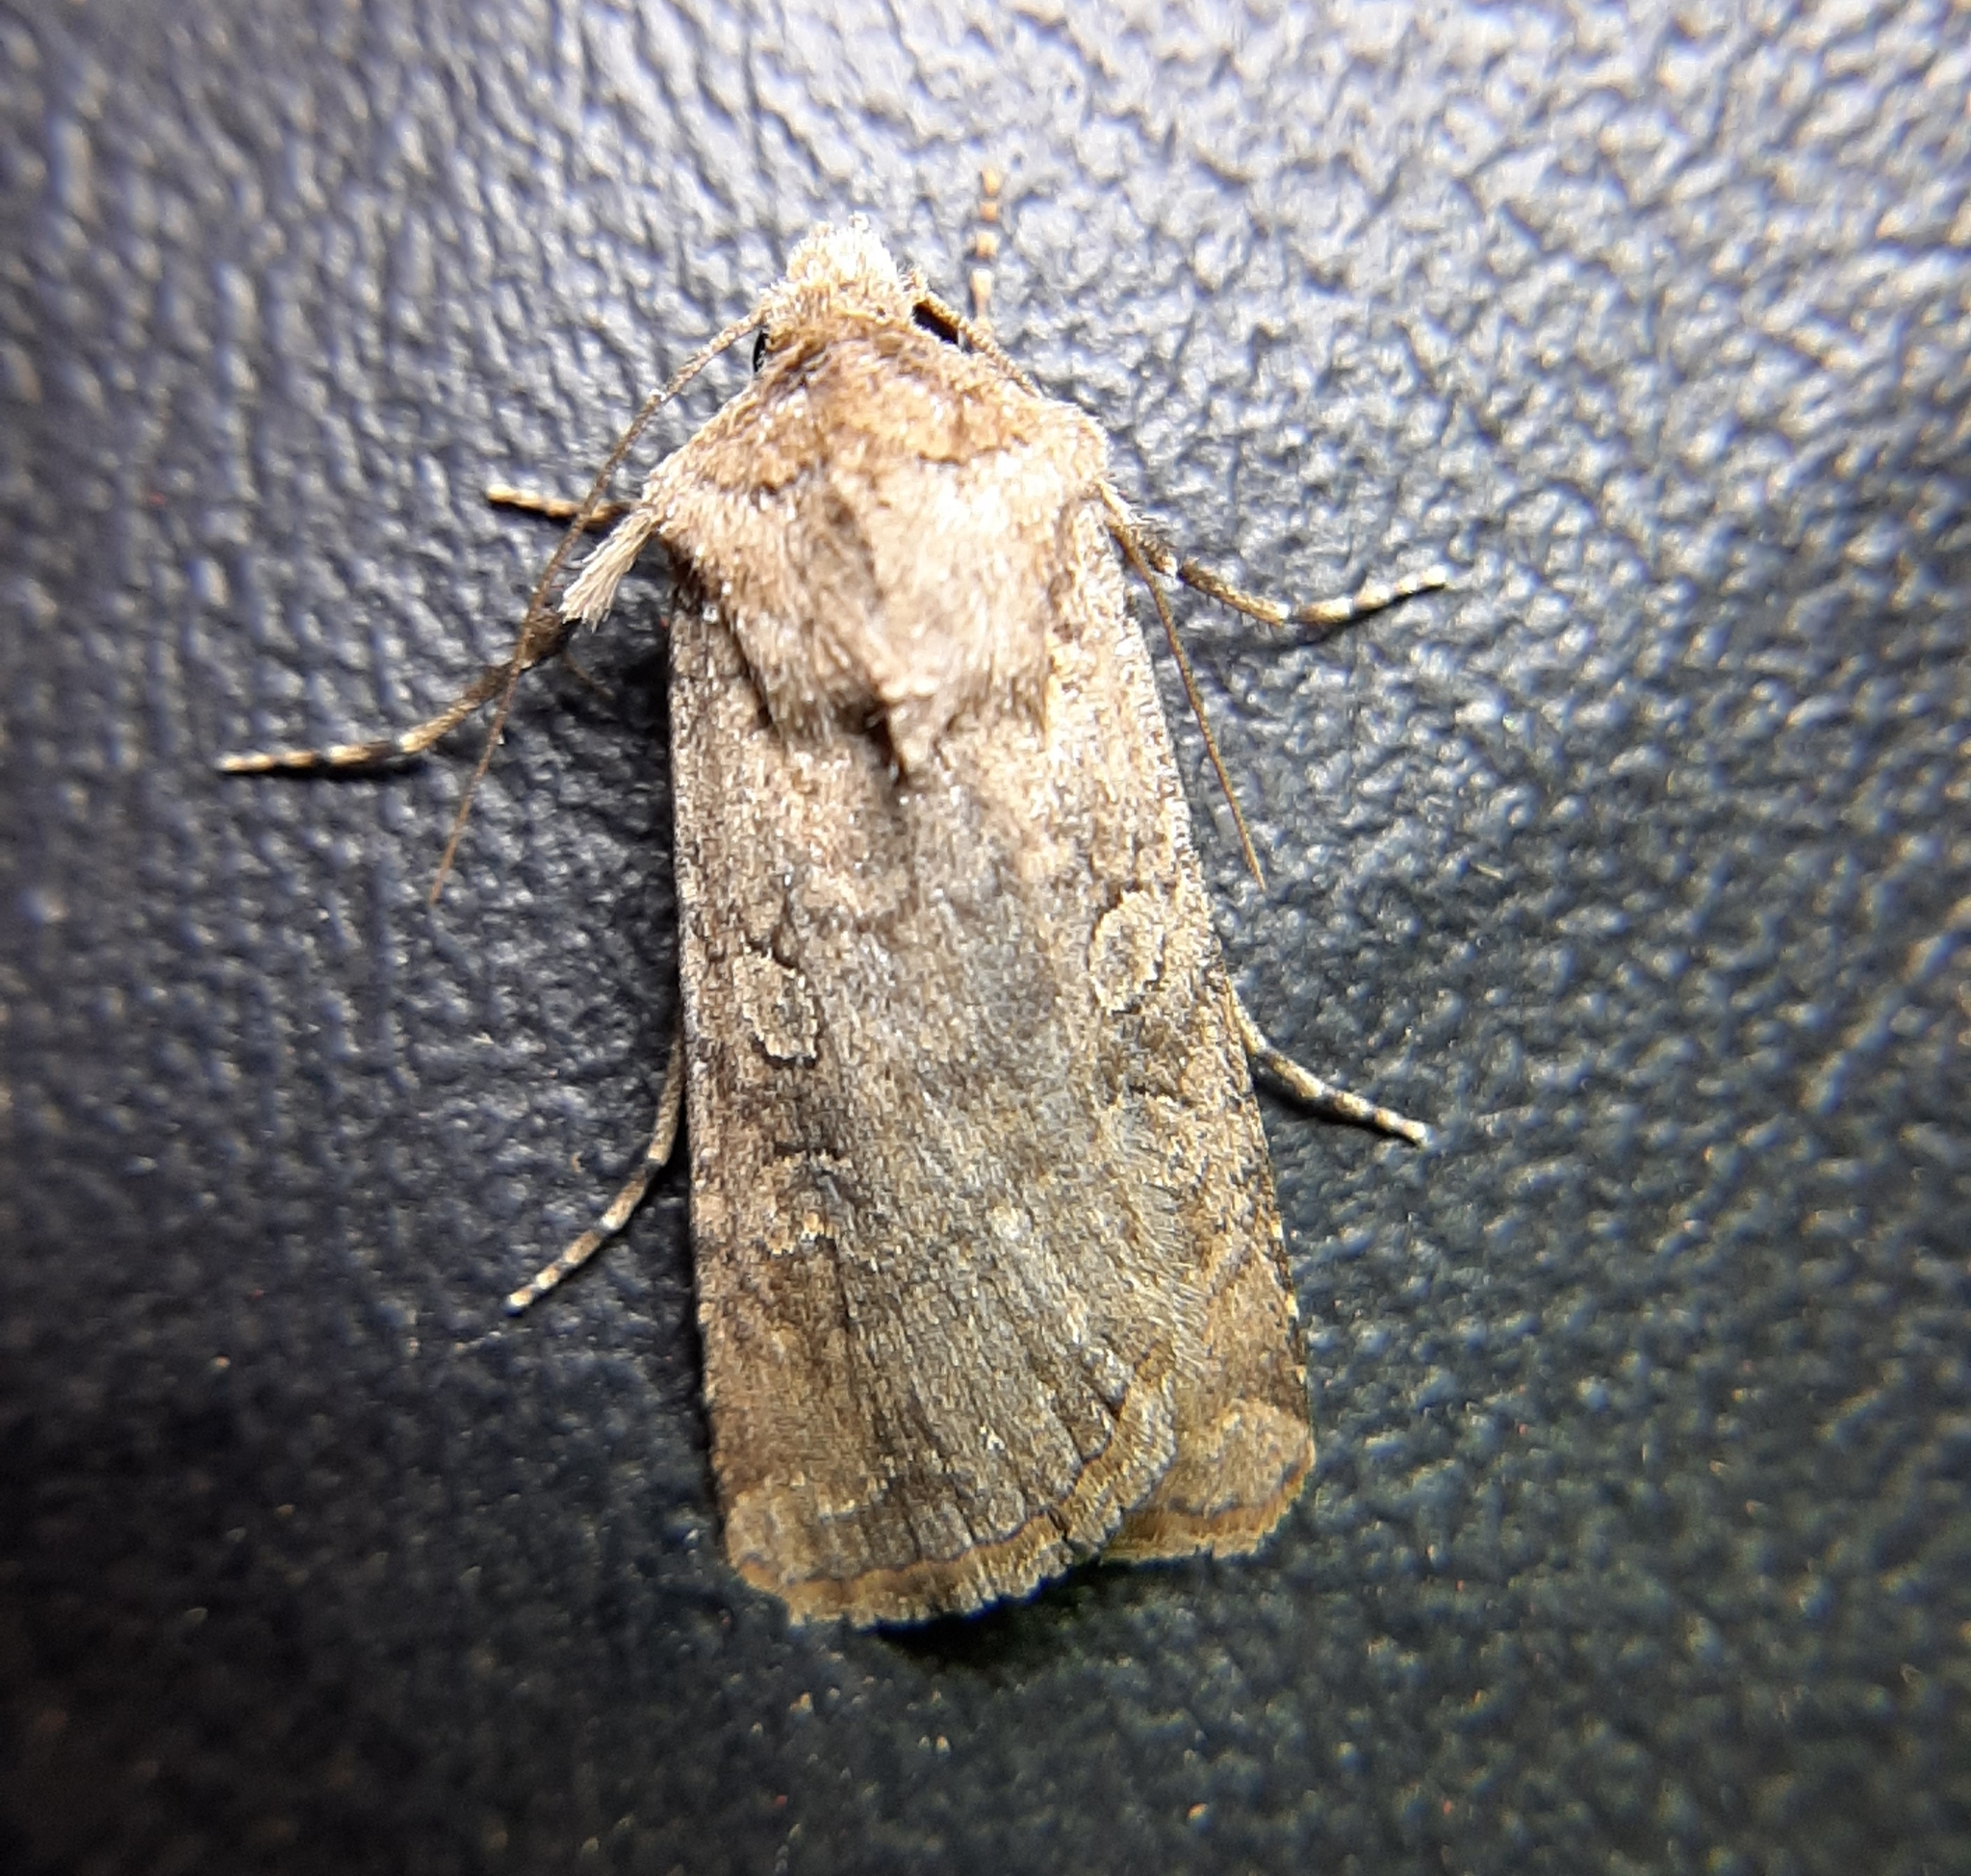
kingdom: Animalia
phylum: Arthropoda
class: Insecta
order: Lepidoptera
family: Noctuidae
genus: Euxoa
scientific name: Euxoa messoria
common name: Darksided cutworm
